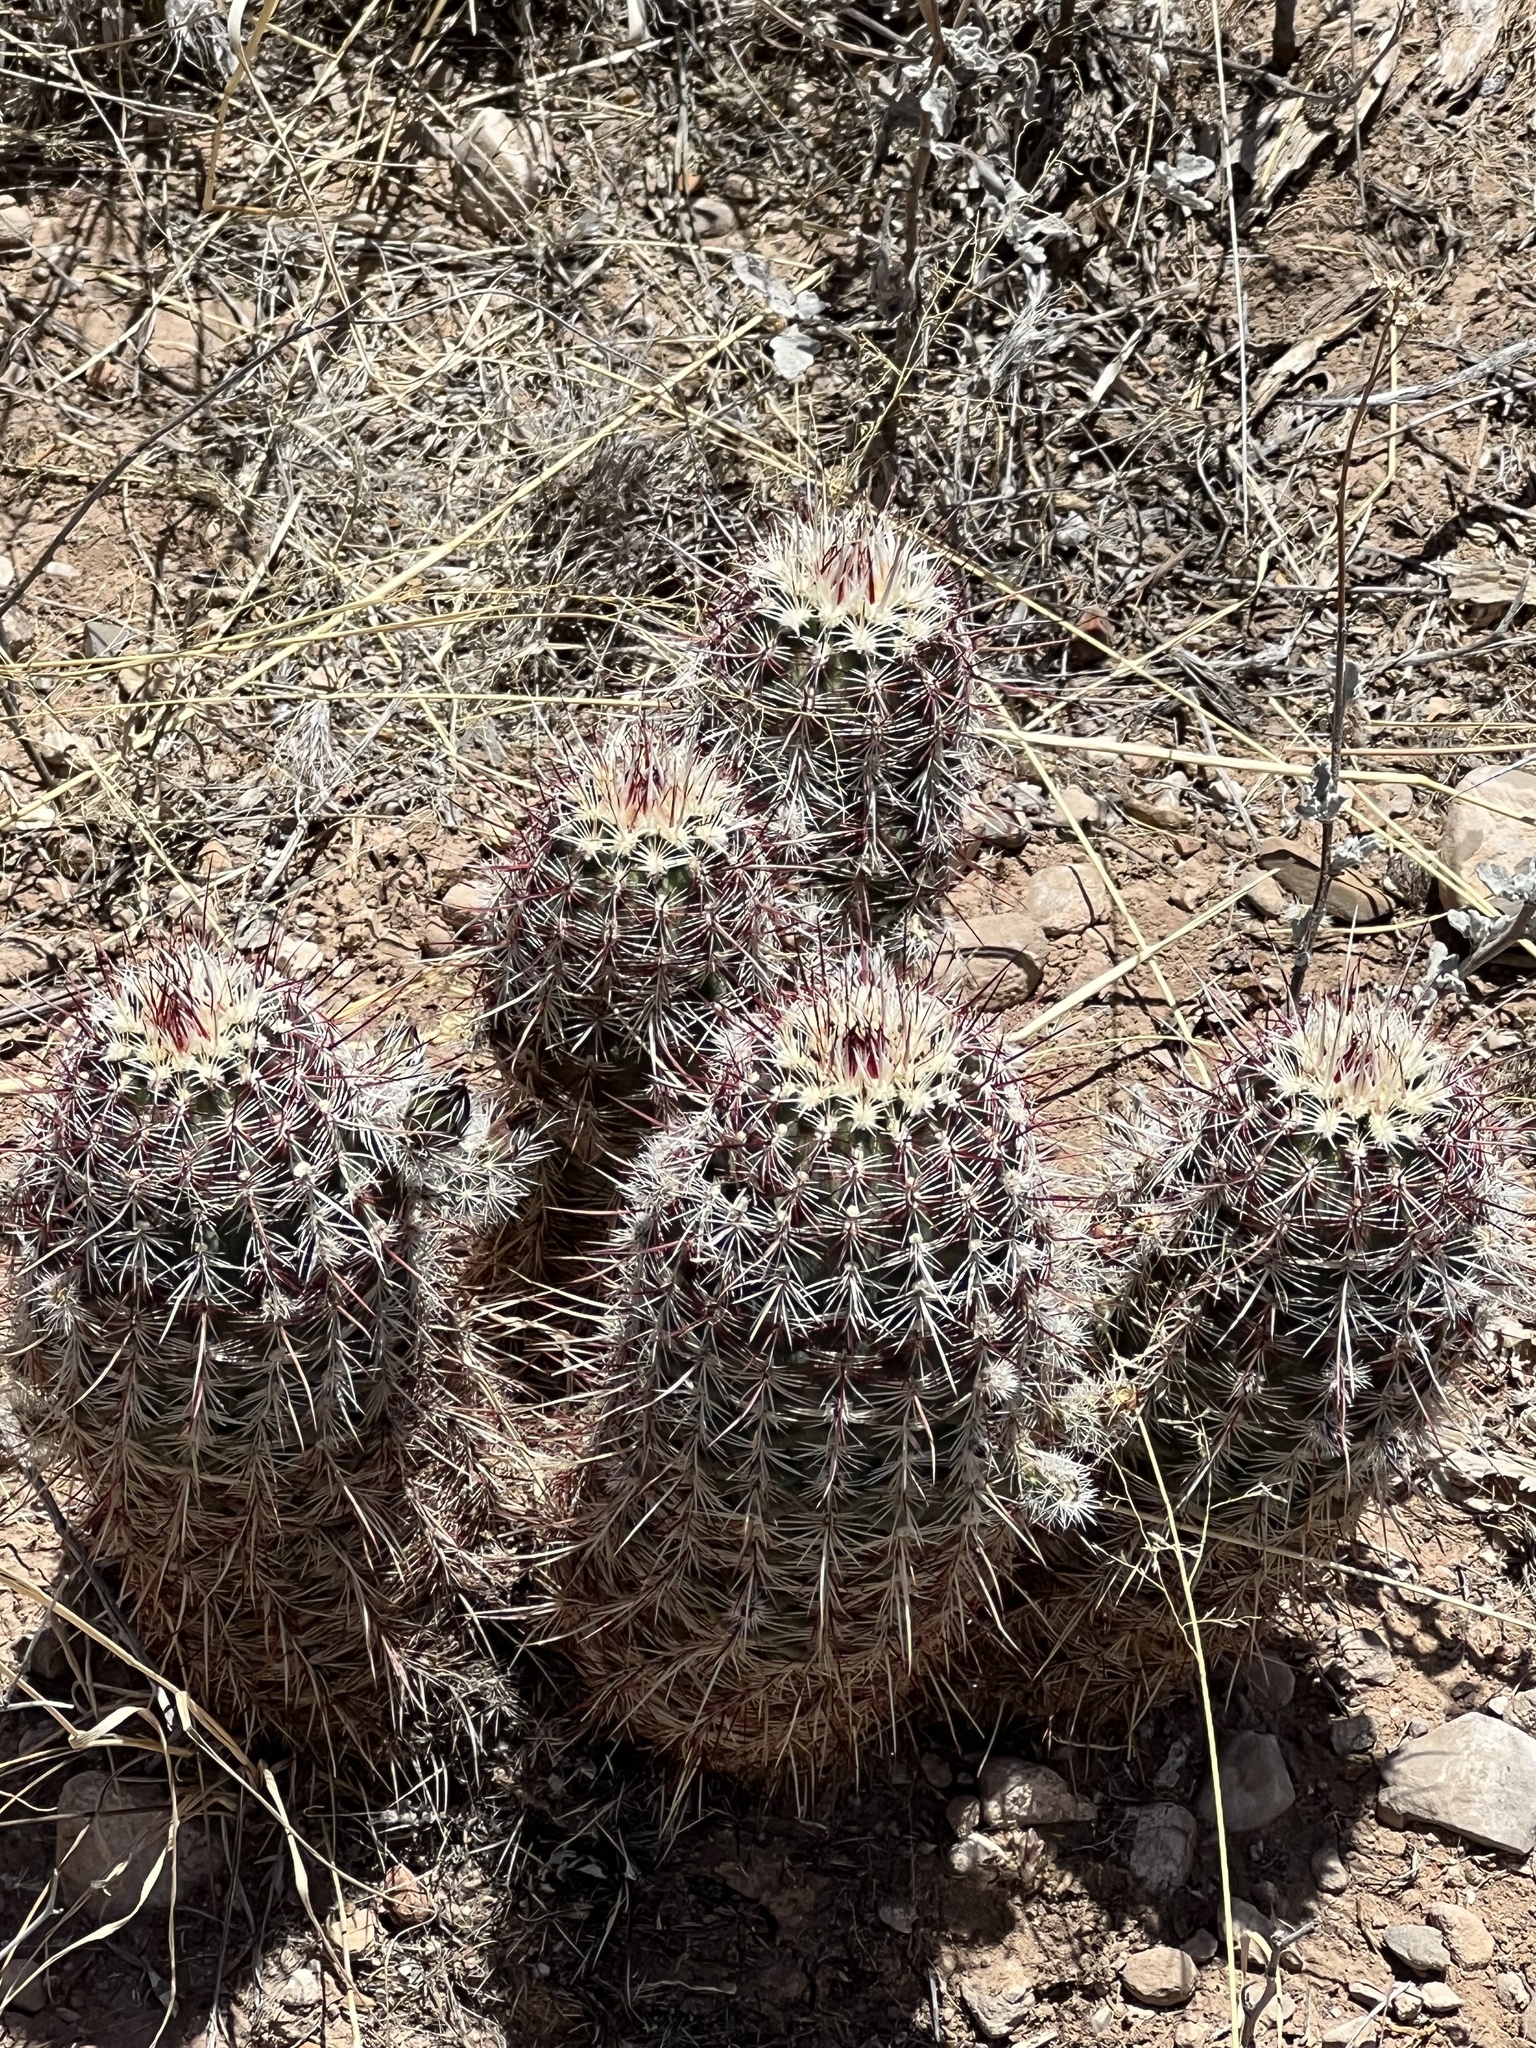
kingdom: Plantae
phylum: Tracheophyta
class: Magnoliopsida
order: Caryophyllales
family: Cactaceae
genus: Echinocereus
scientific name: Echinocereus viridiflorus
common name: Nylon hedgehog cactus
